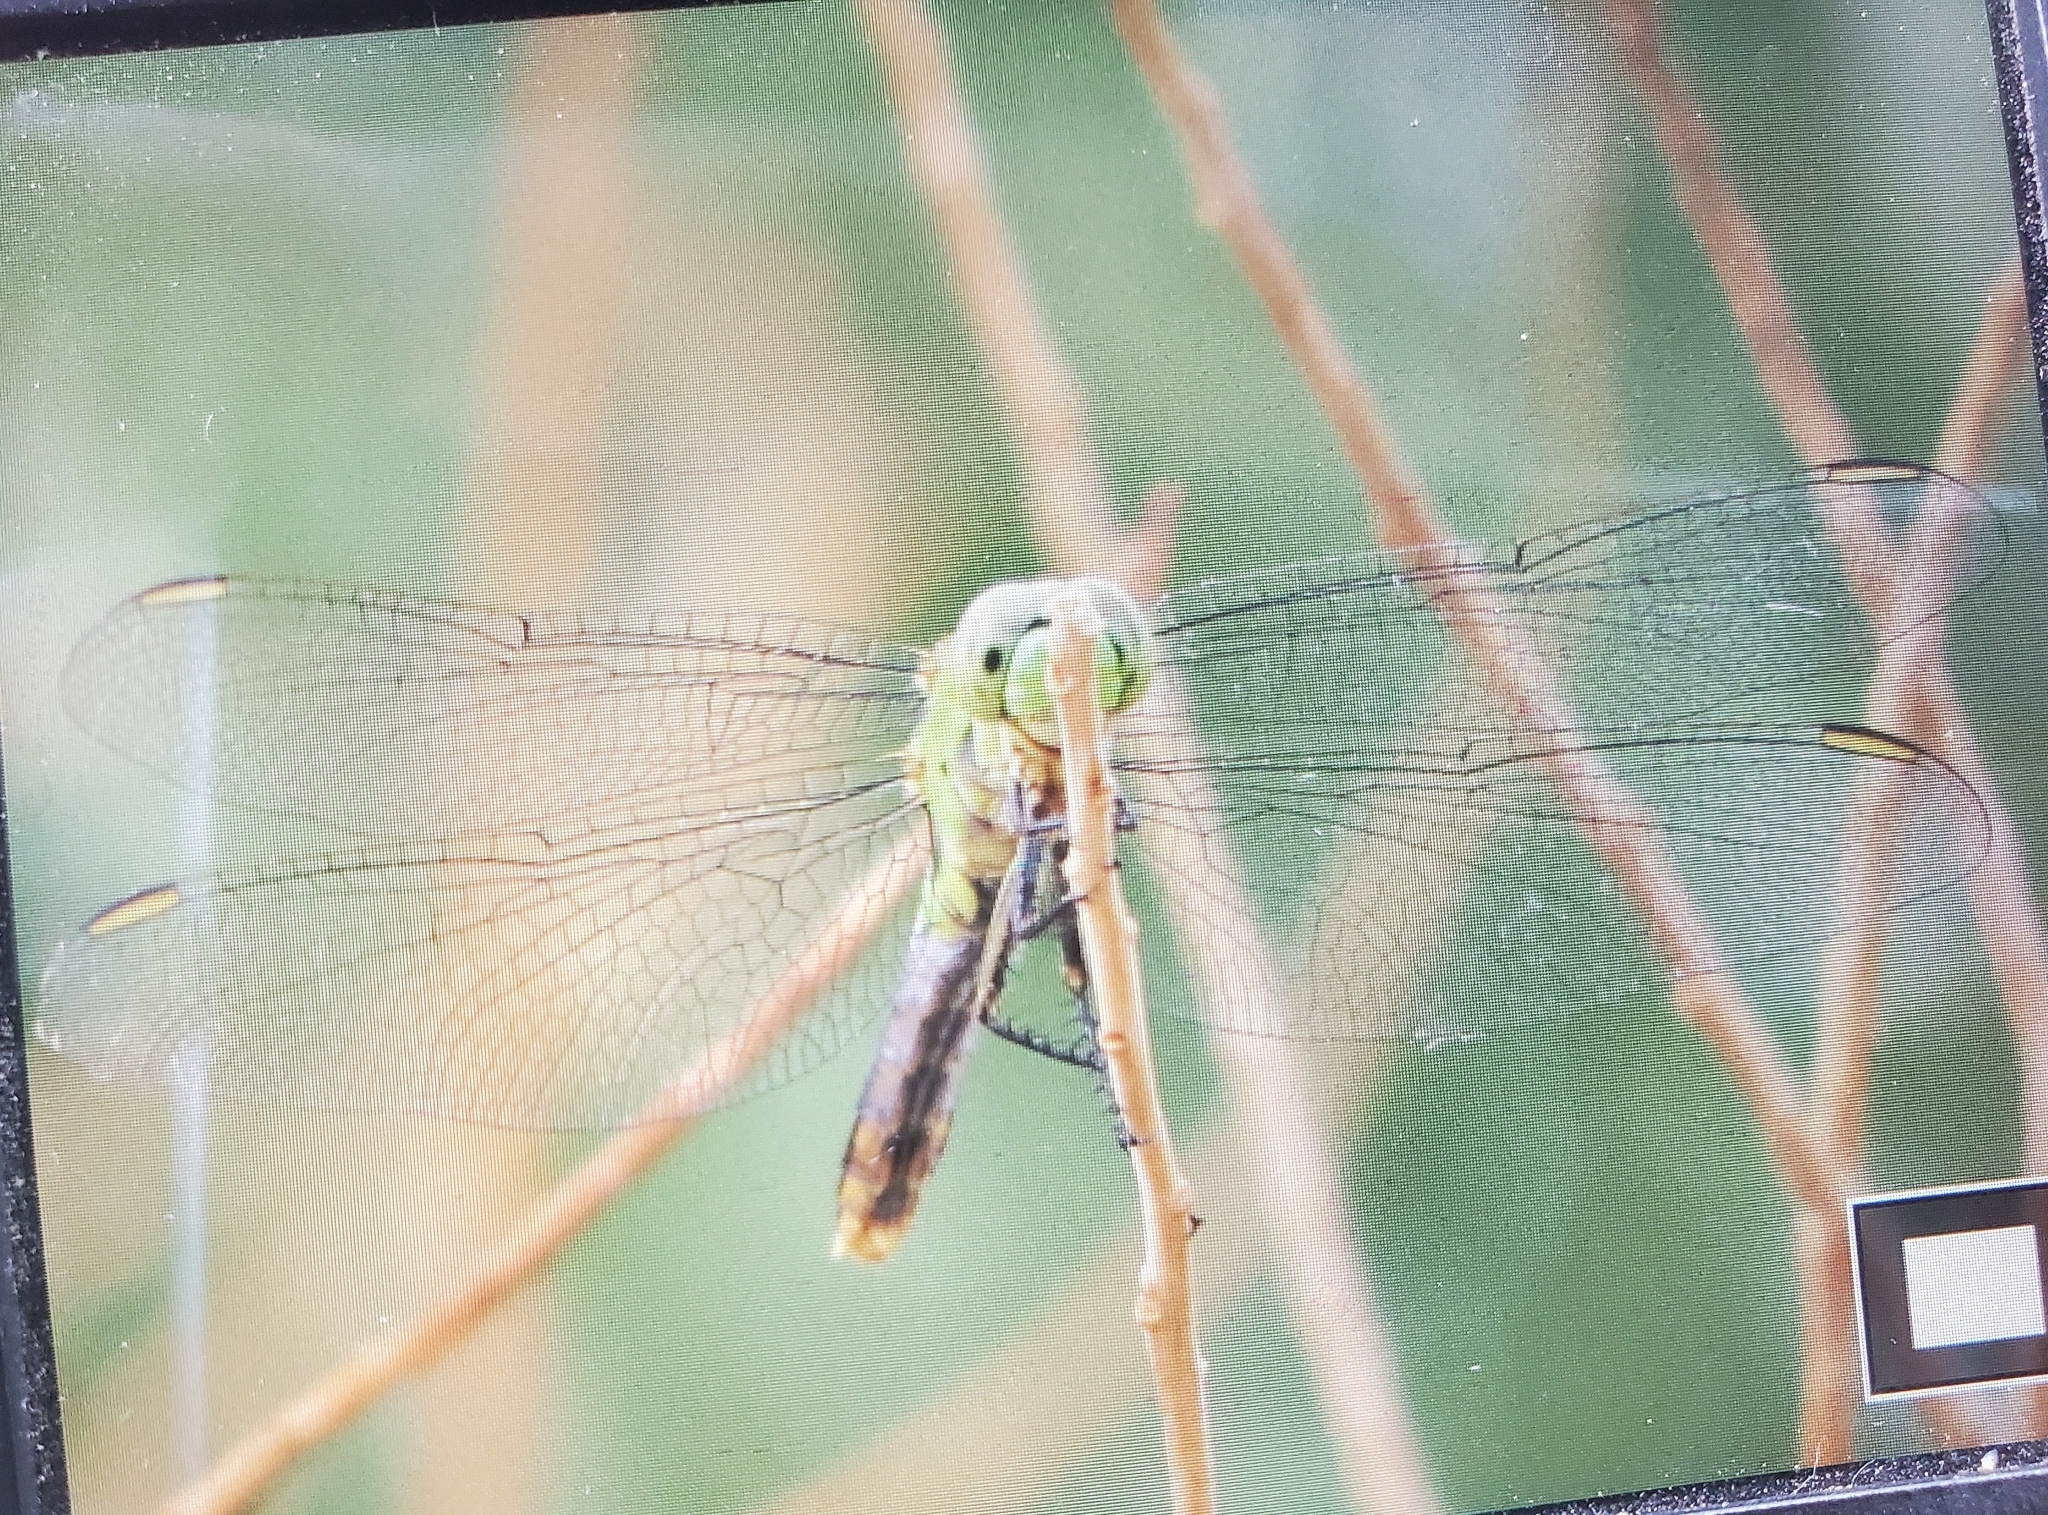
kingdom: Animalia
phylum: Arthropoda
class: Insecta
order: Odonata
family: Libellulidae
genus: Erythemis
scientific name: Erythemis collocata
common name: Western pondhawk
